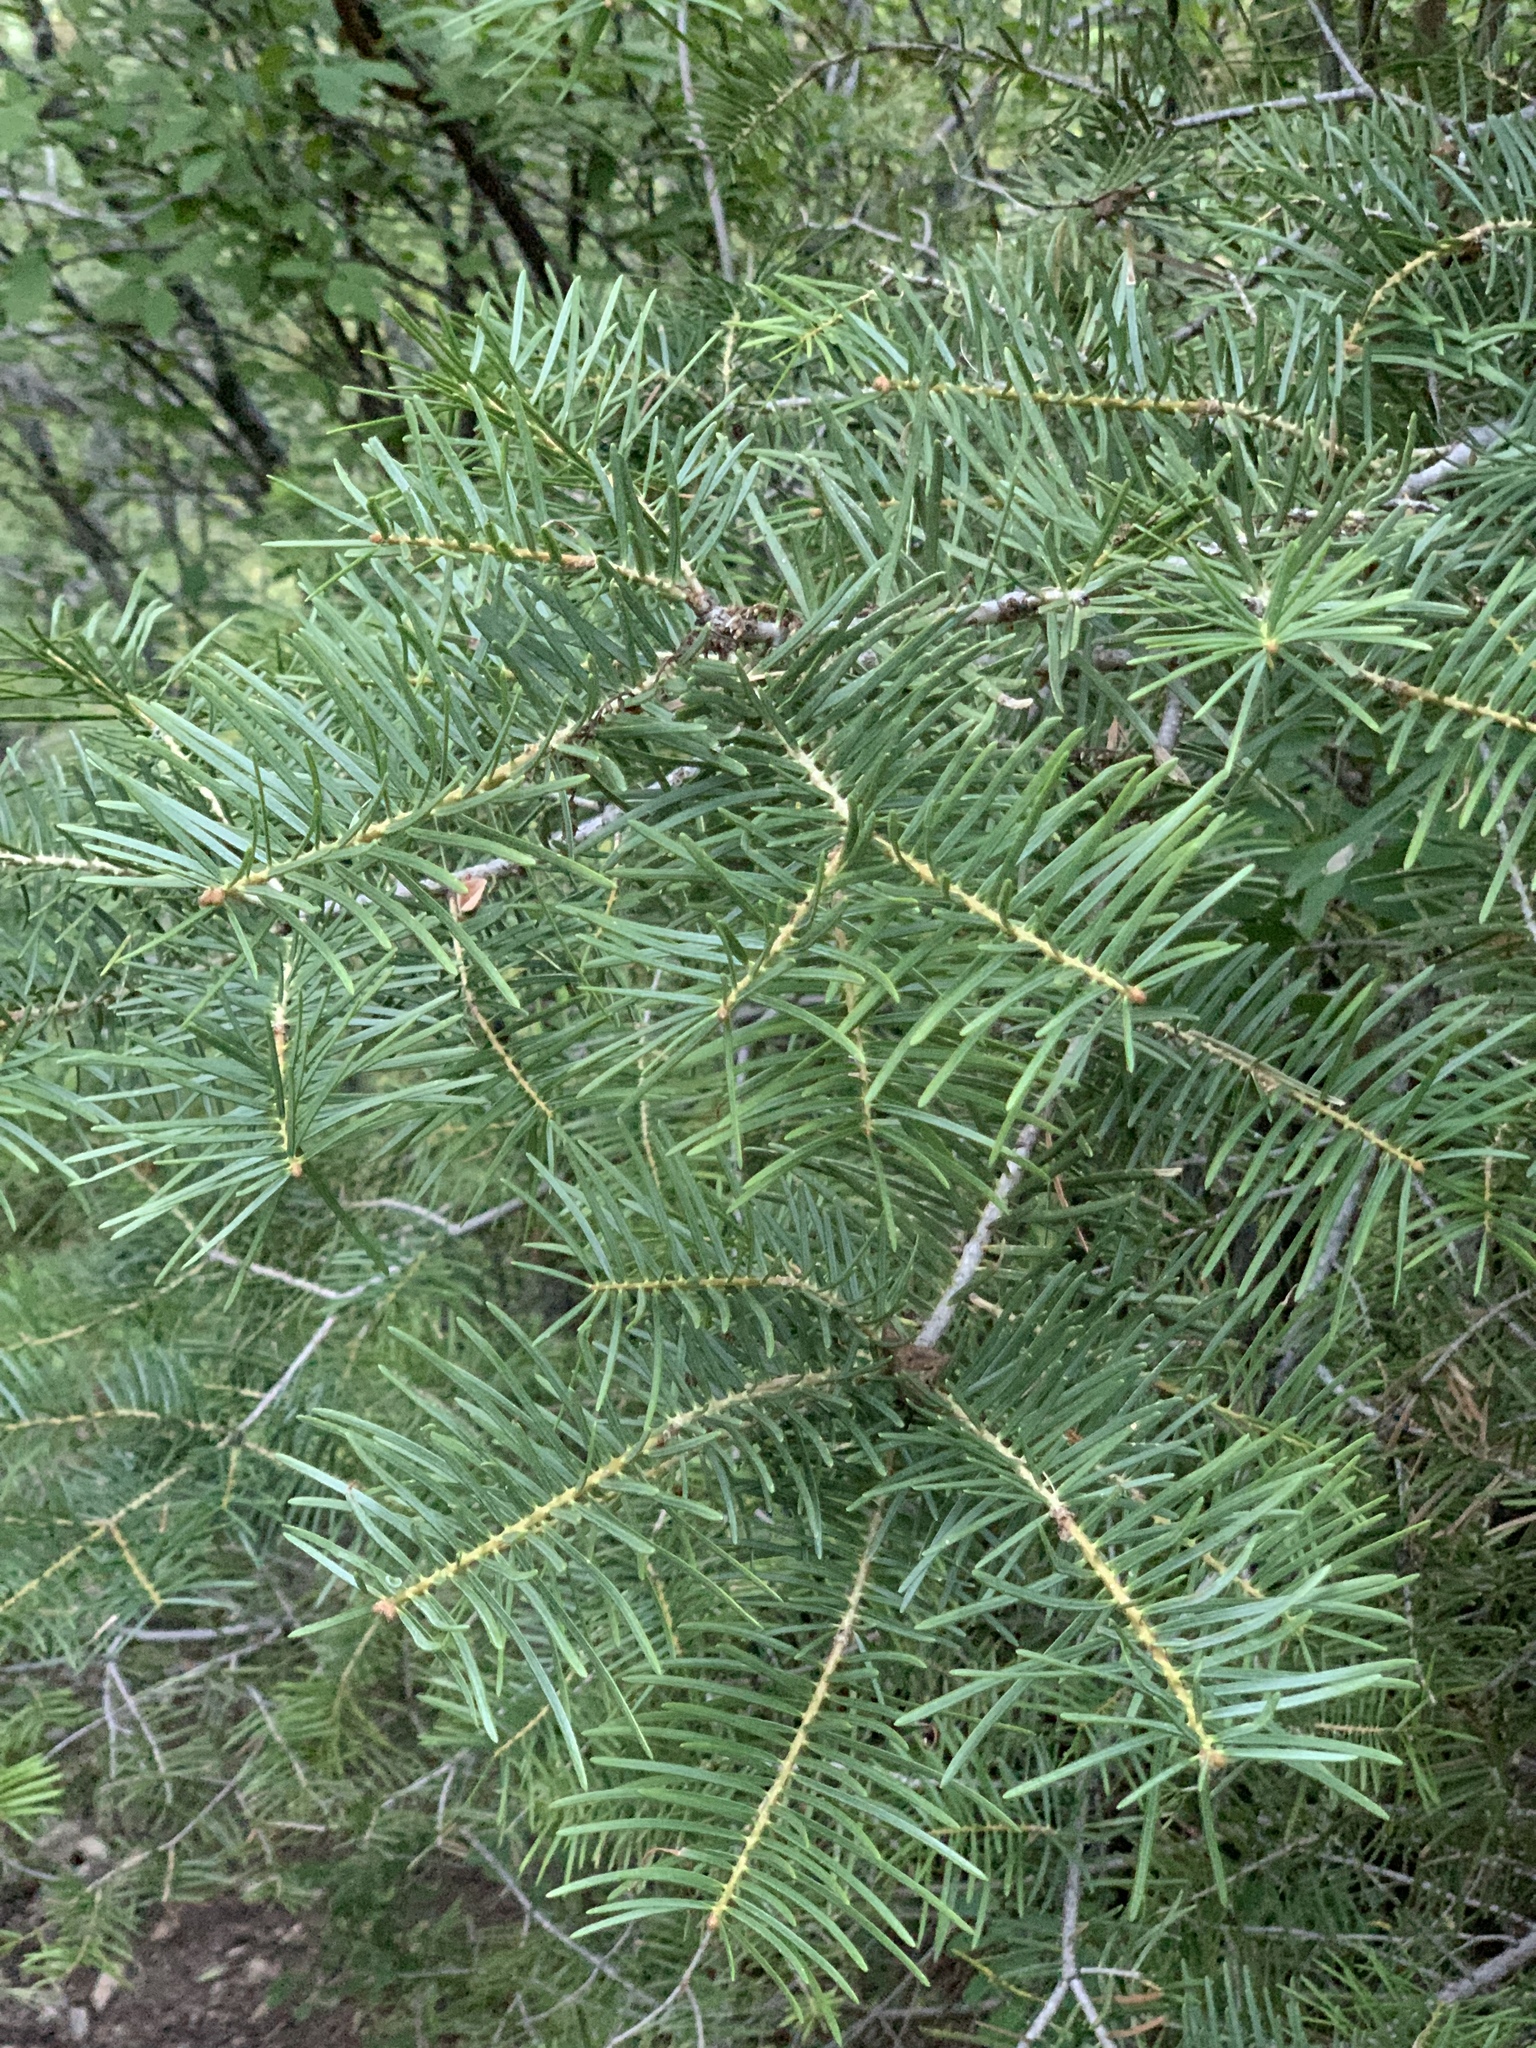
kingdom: Plantae
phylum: Tracheophyta
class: Pinopsida
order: Pinales
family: Pinaceae
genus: Abies
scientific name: Abies concolor
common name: Colorado fir
